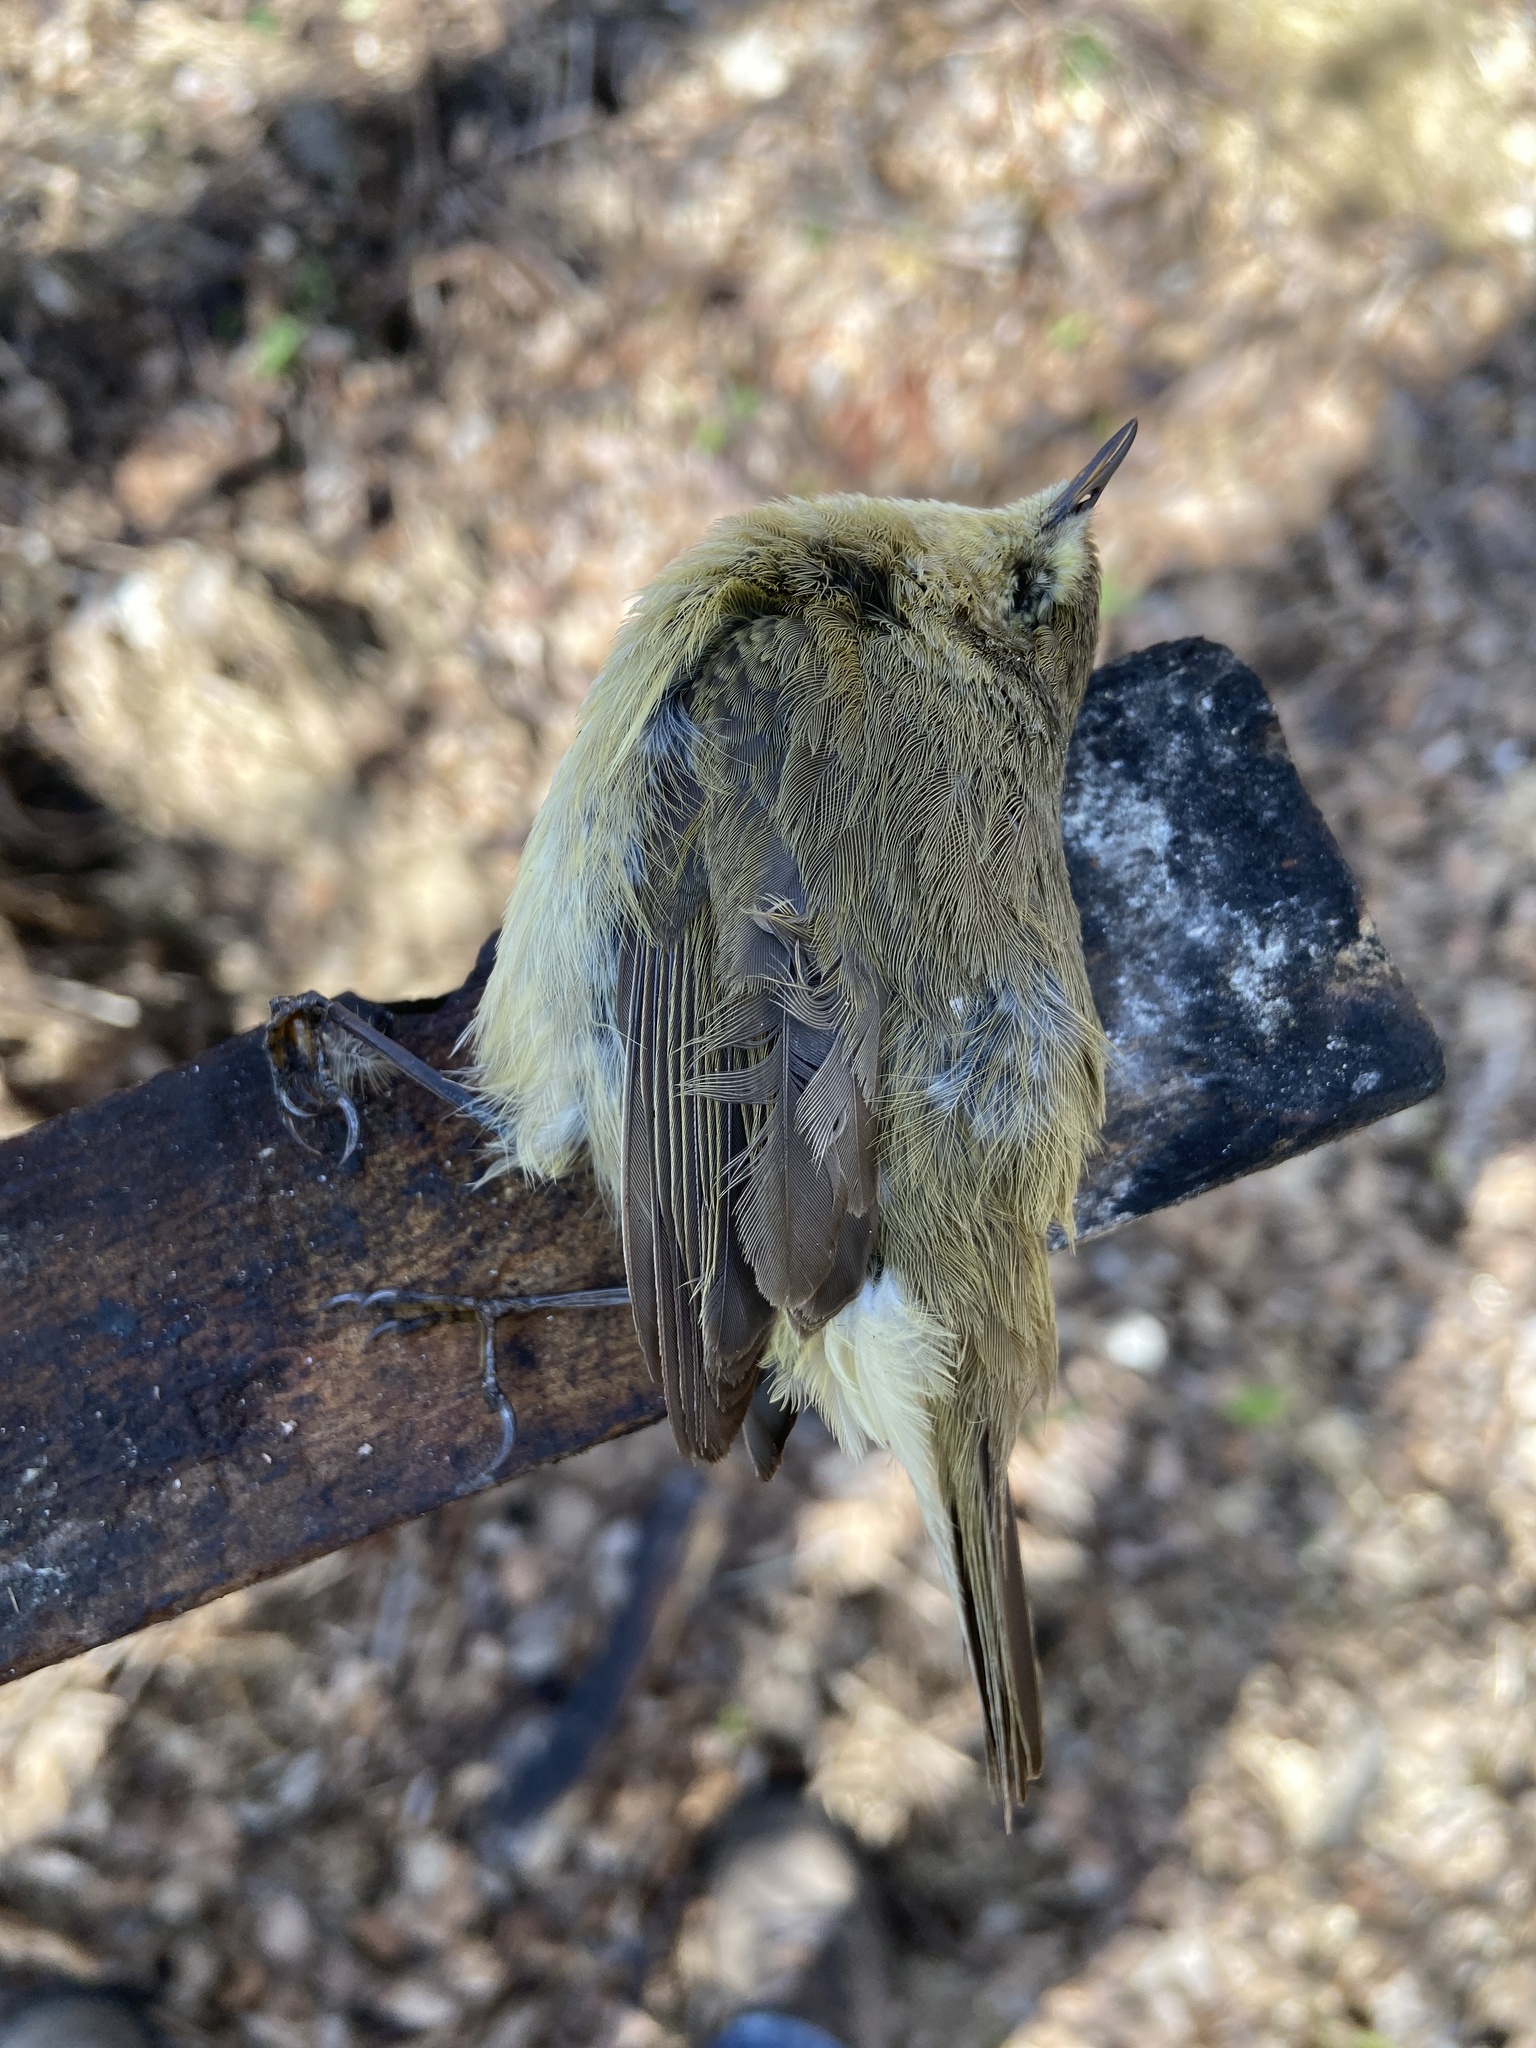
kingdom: Animalia
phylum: Chordata
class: Aves
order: Passeriformes
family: Phylloscopidae
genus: Phylloscopus
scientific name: Phylloscopus collybita
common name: Common chiffchaff
